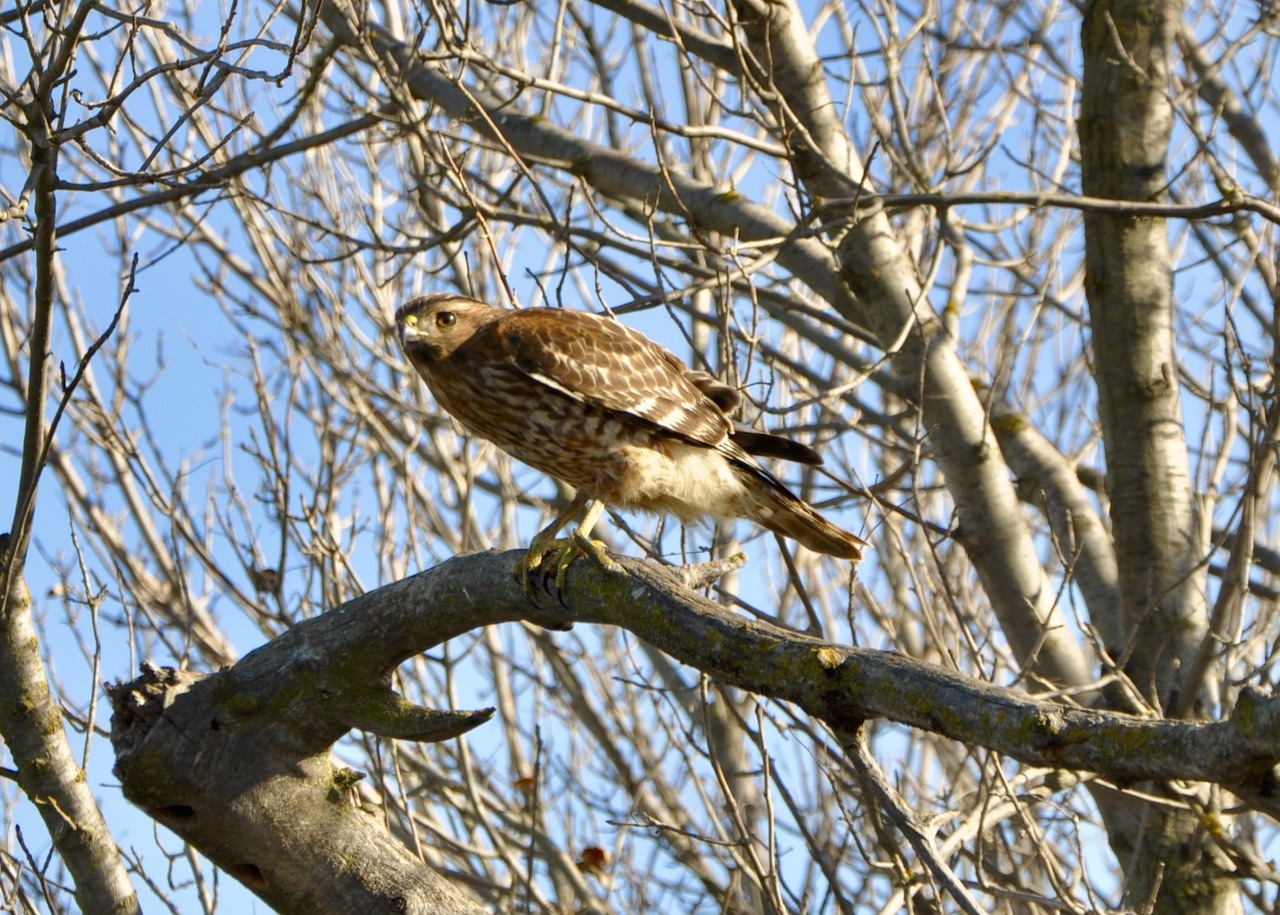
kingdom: Animalia
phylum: Chordata
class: Aves
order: Accipitriformes
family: Accipitridae
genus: Buteo
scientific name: Buteo lineatus
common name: Red-shouldered hawk
